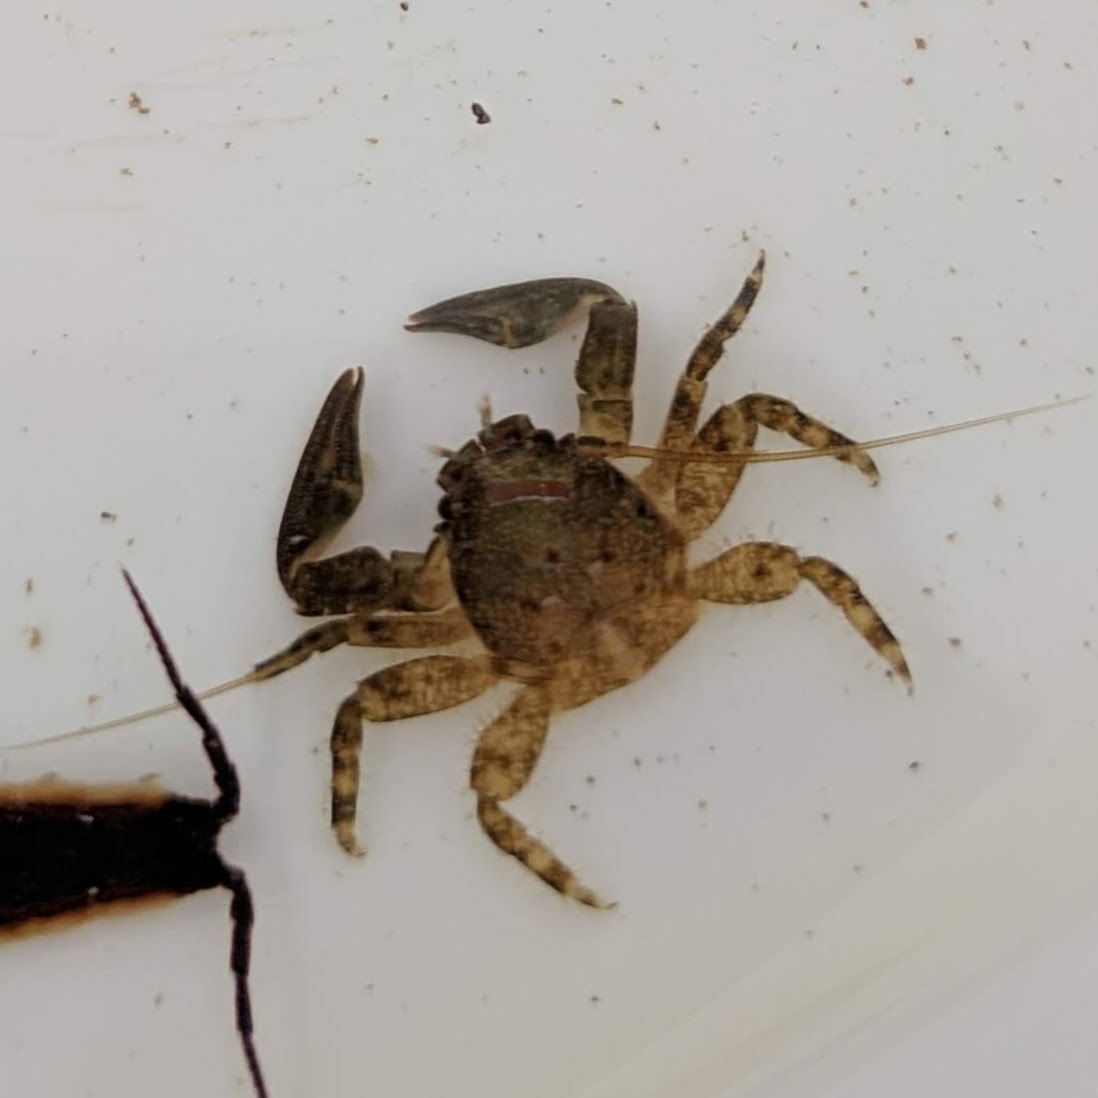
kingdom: Animalia
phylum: Arthropoda
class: Malacostraca
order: Decapoda
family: Porcellanidae
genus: Petrolisthes
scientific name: Petrolisthes cabrilloi
